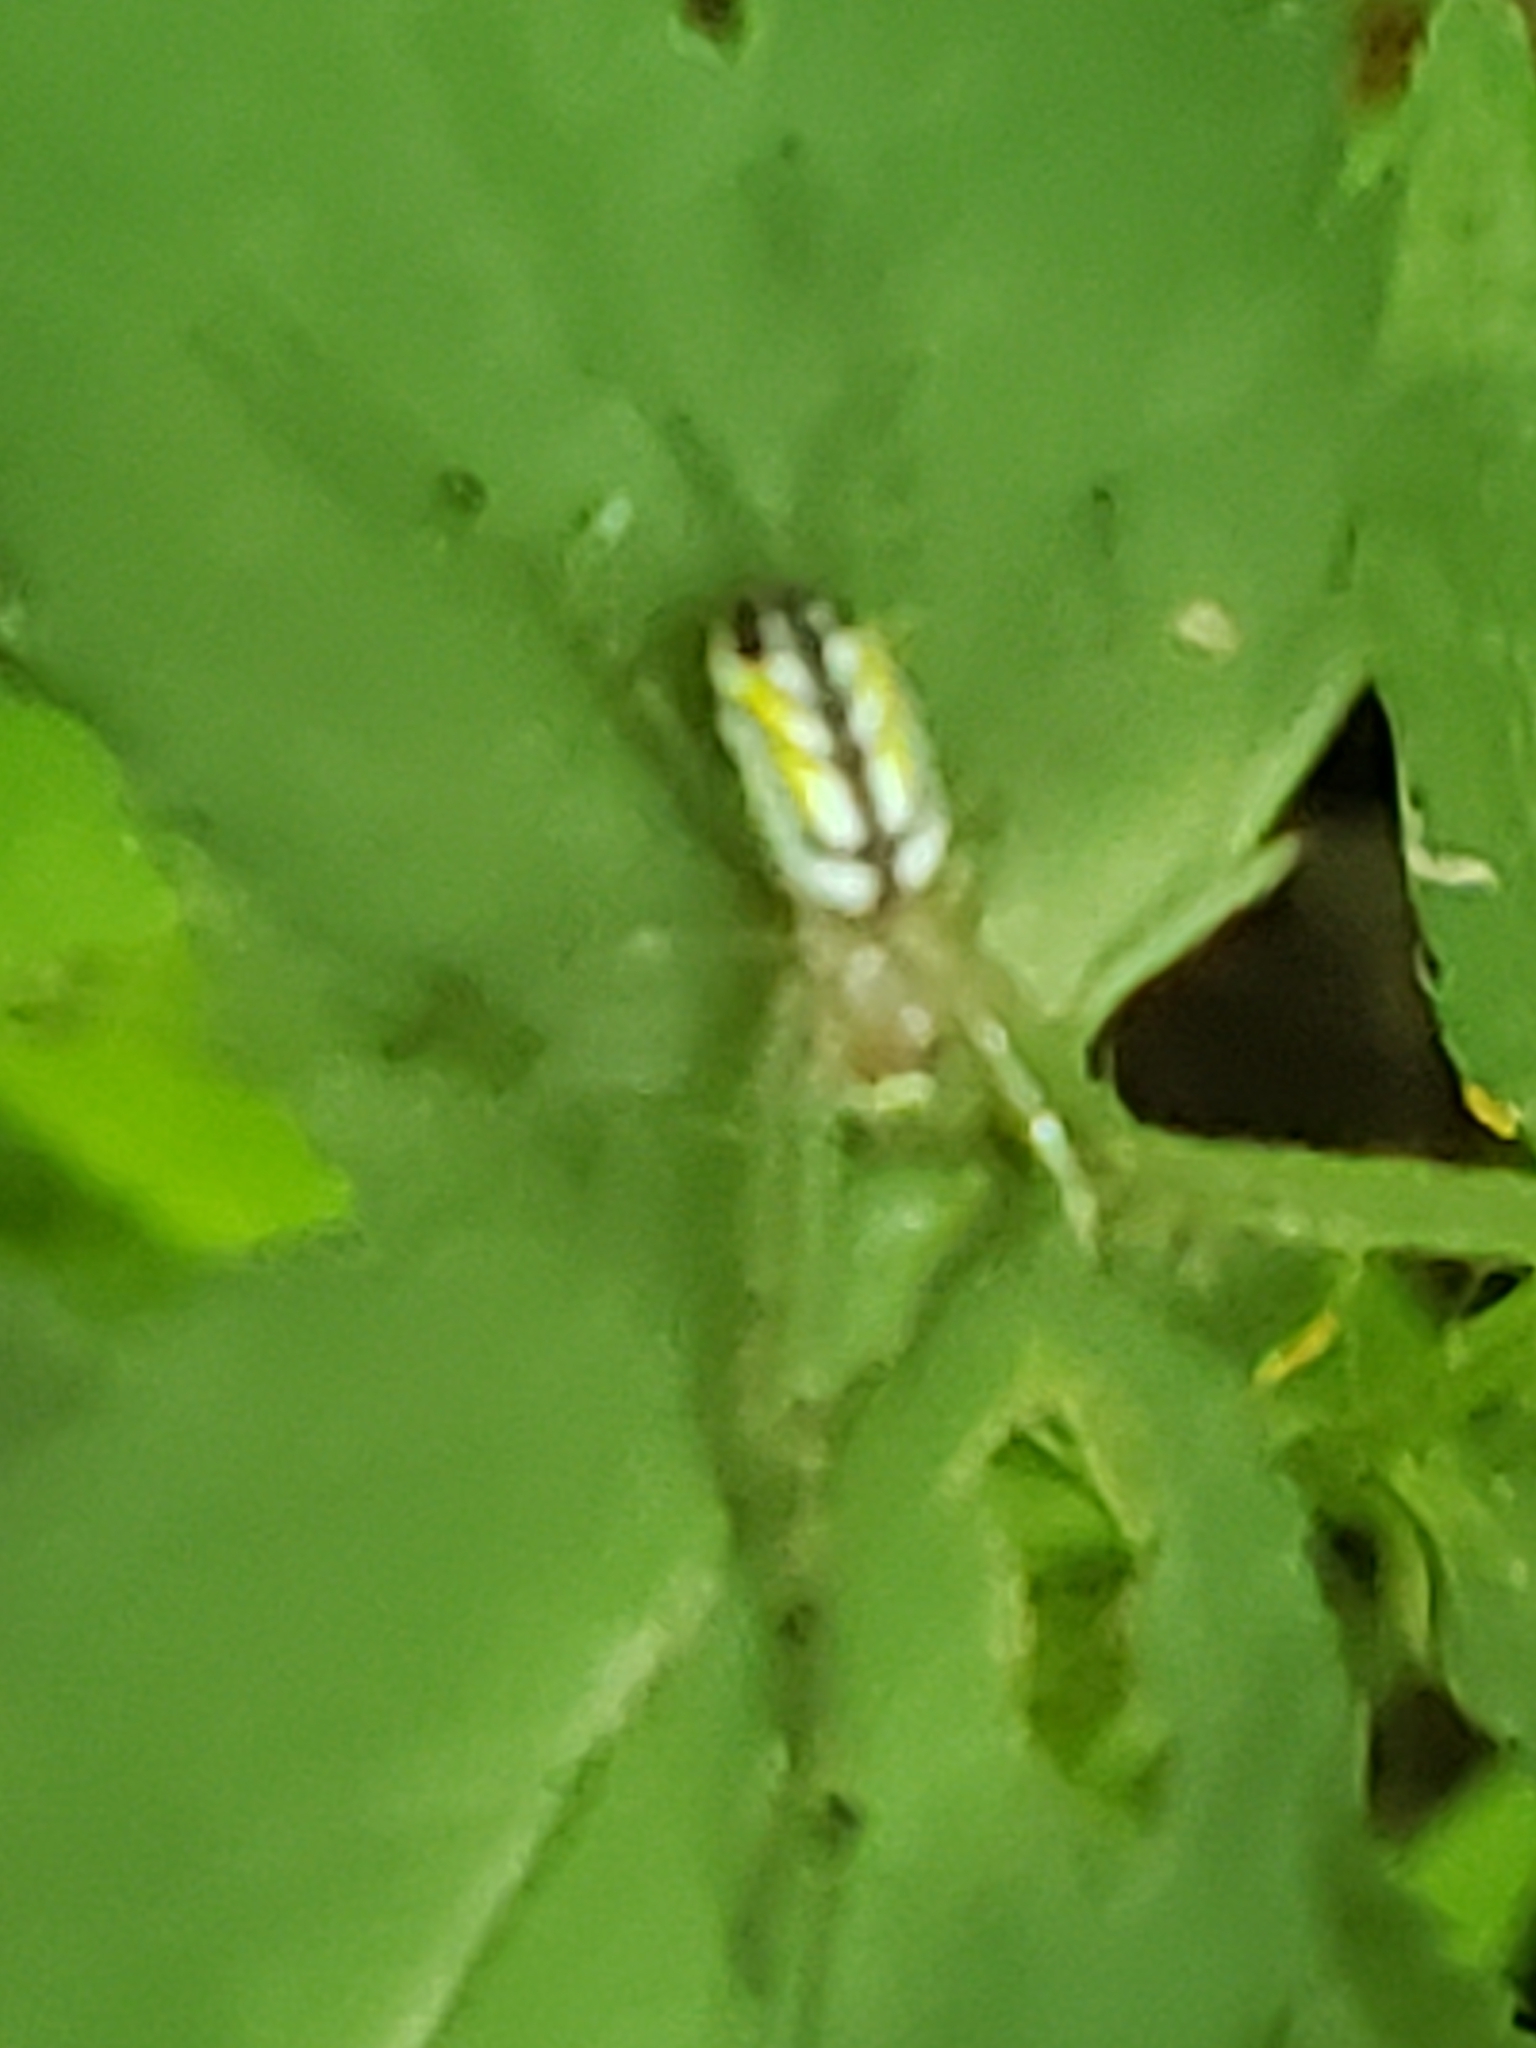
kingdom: Animalia
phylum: Arthropoda
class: Arachnida
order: Araneae
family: Tetragnathidae
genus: Leucauge
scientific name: Leucauge venusta
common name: Longjawed orb weavers
